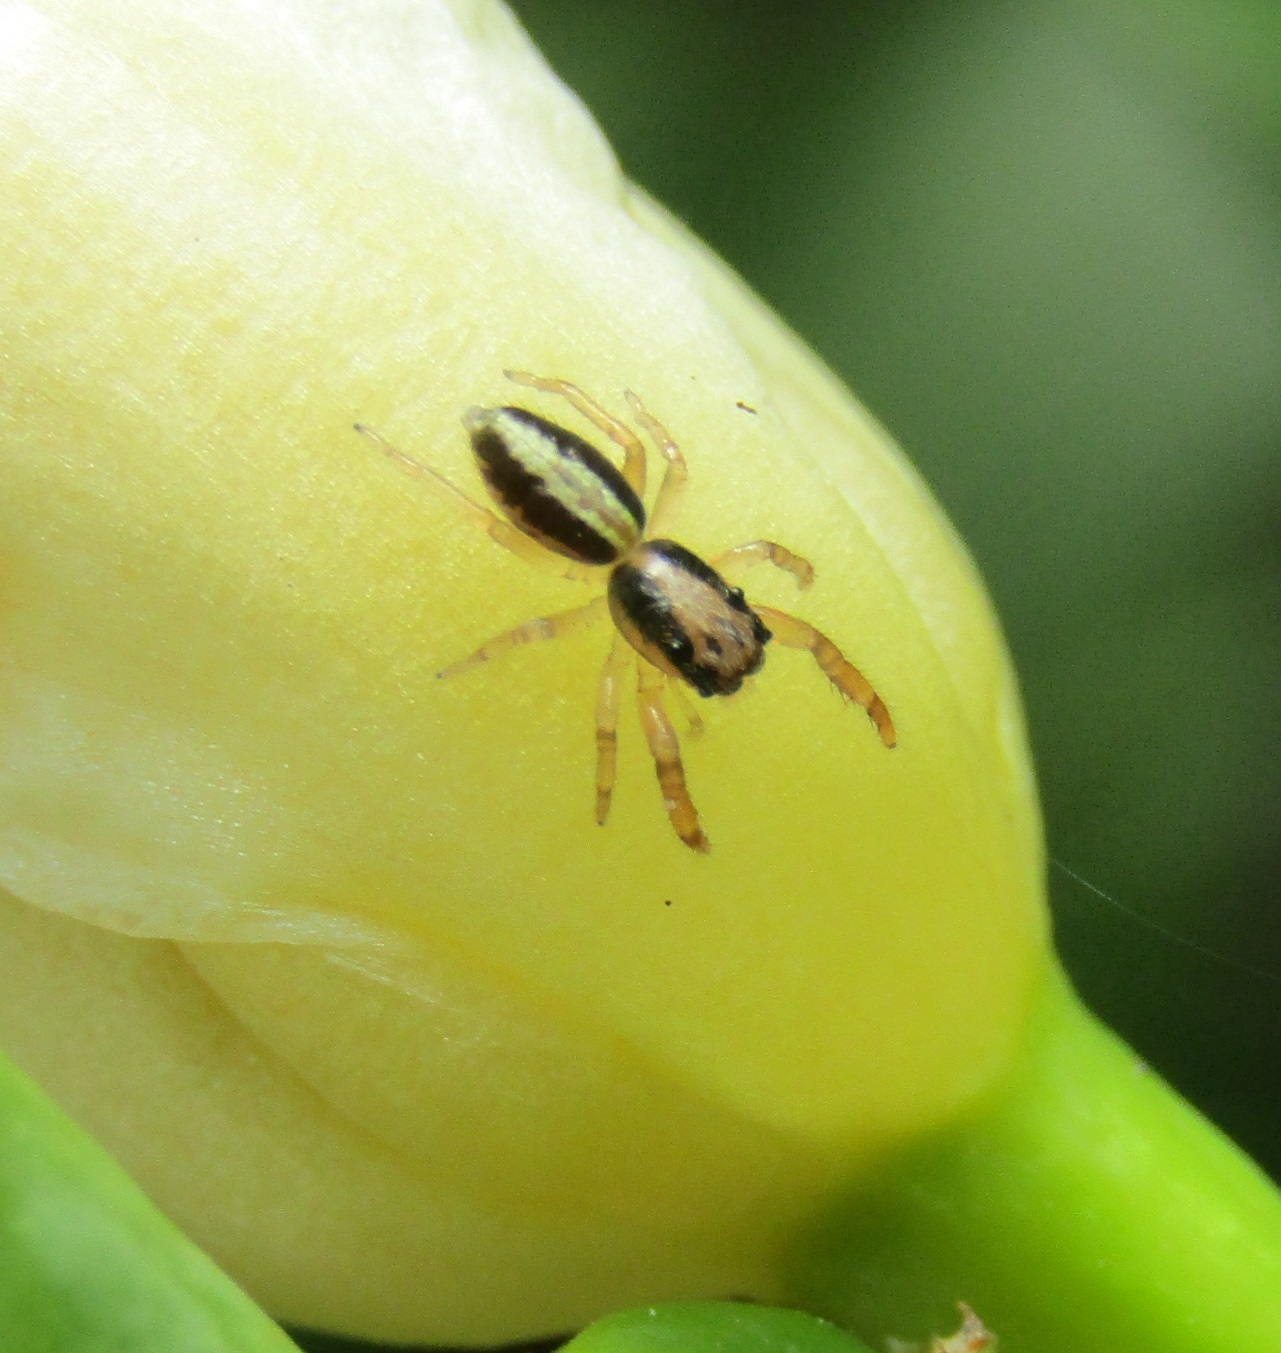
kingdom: Animalia
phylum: Arthropoda
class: Arachnida
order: Araneae
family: Salticidae
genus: Trite
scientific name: Trite planiceps
